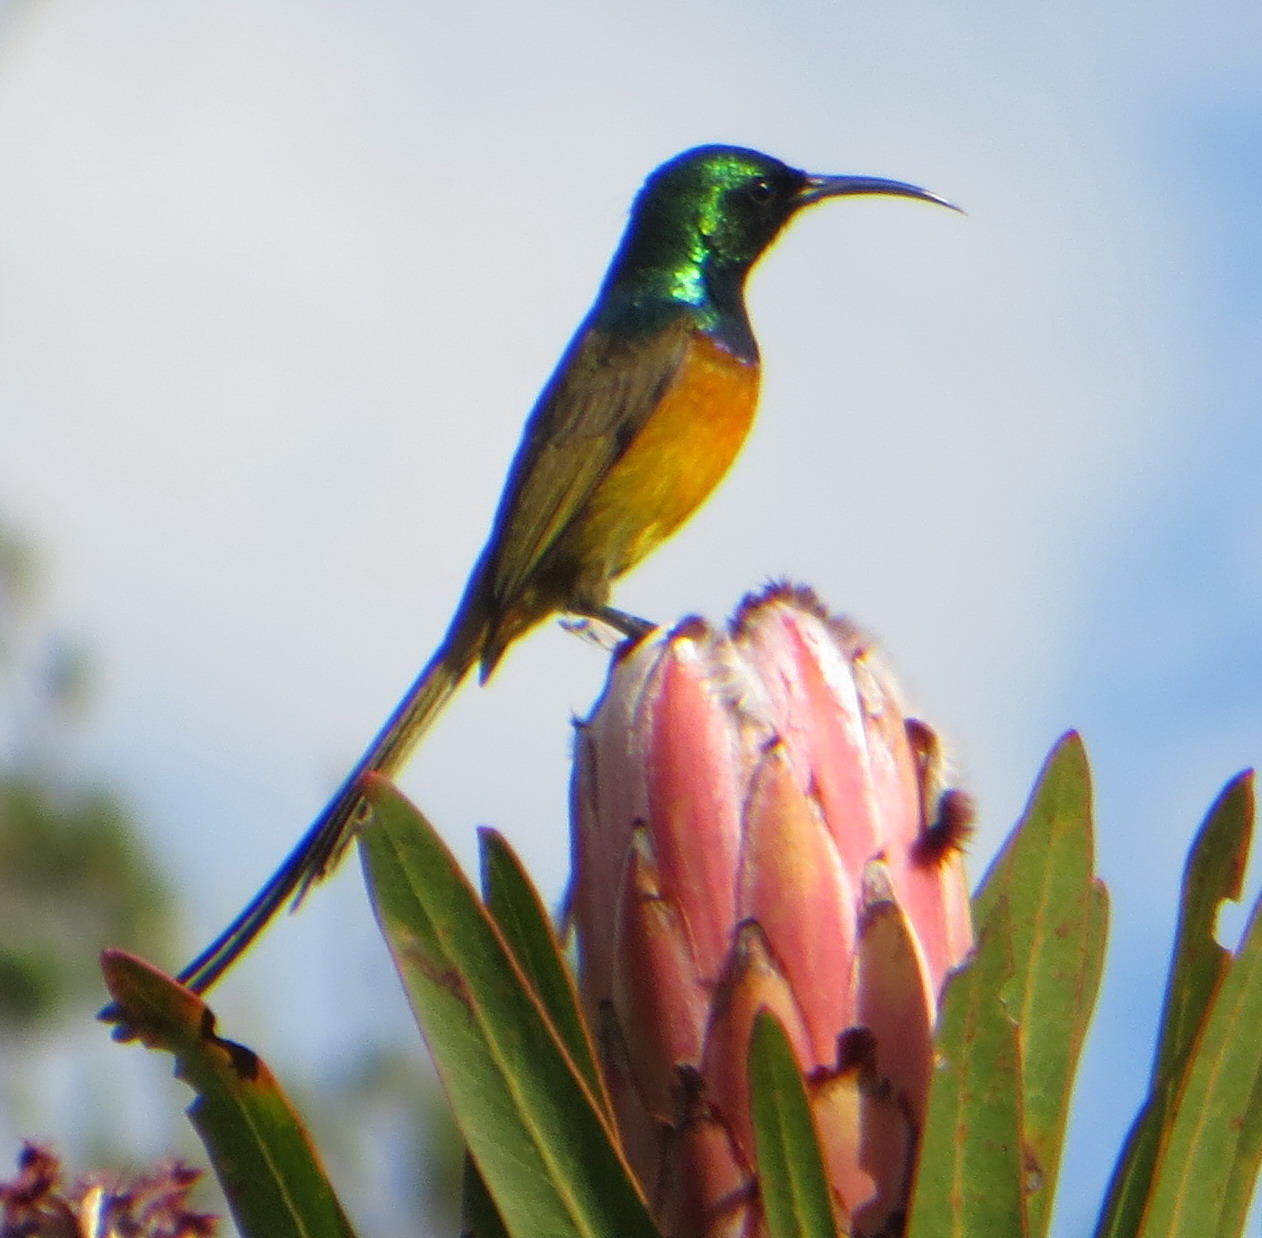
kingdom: Animalia
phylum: Chordata
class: Aves
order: Passeriformes
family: Nectariniidae
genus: Anthobaphes
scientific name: Anthobaphes violacea
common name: Orange-breasted sunbird
